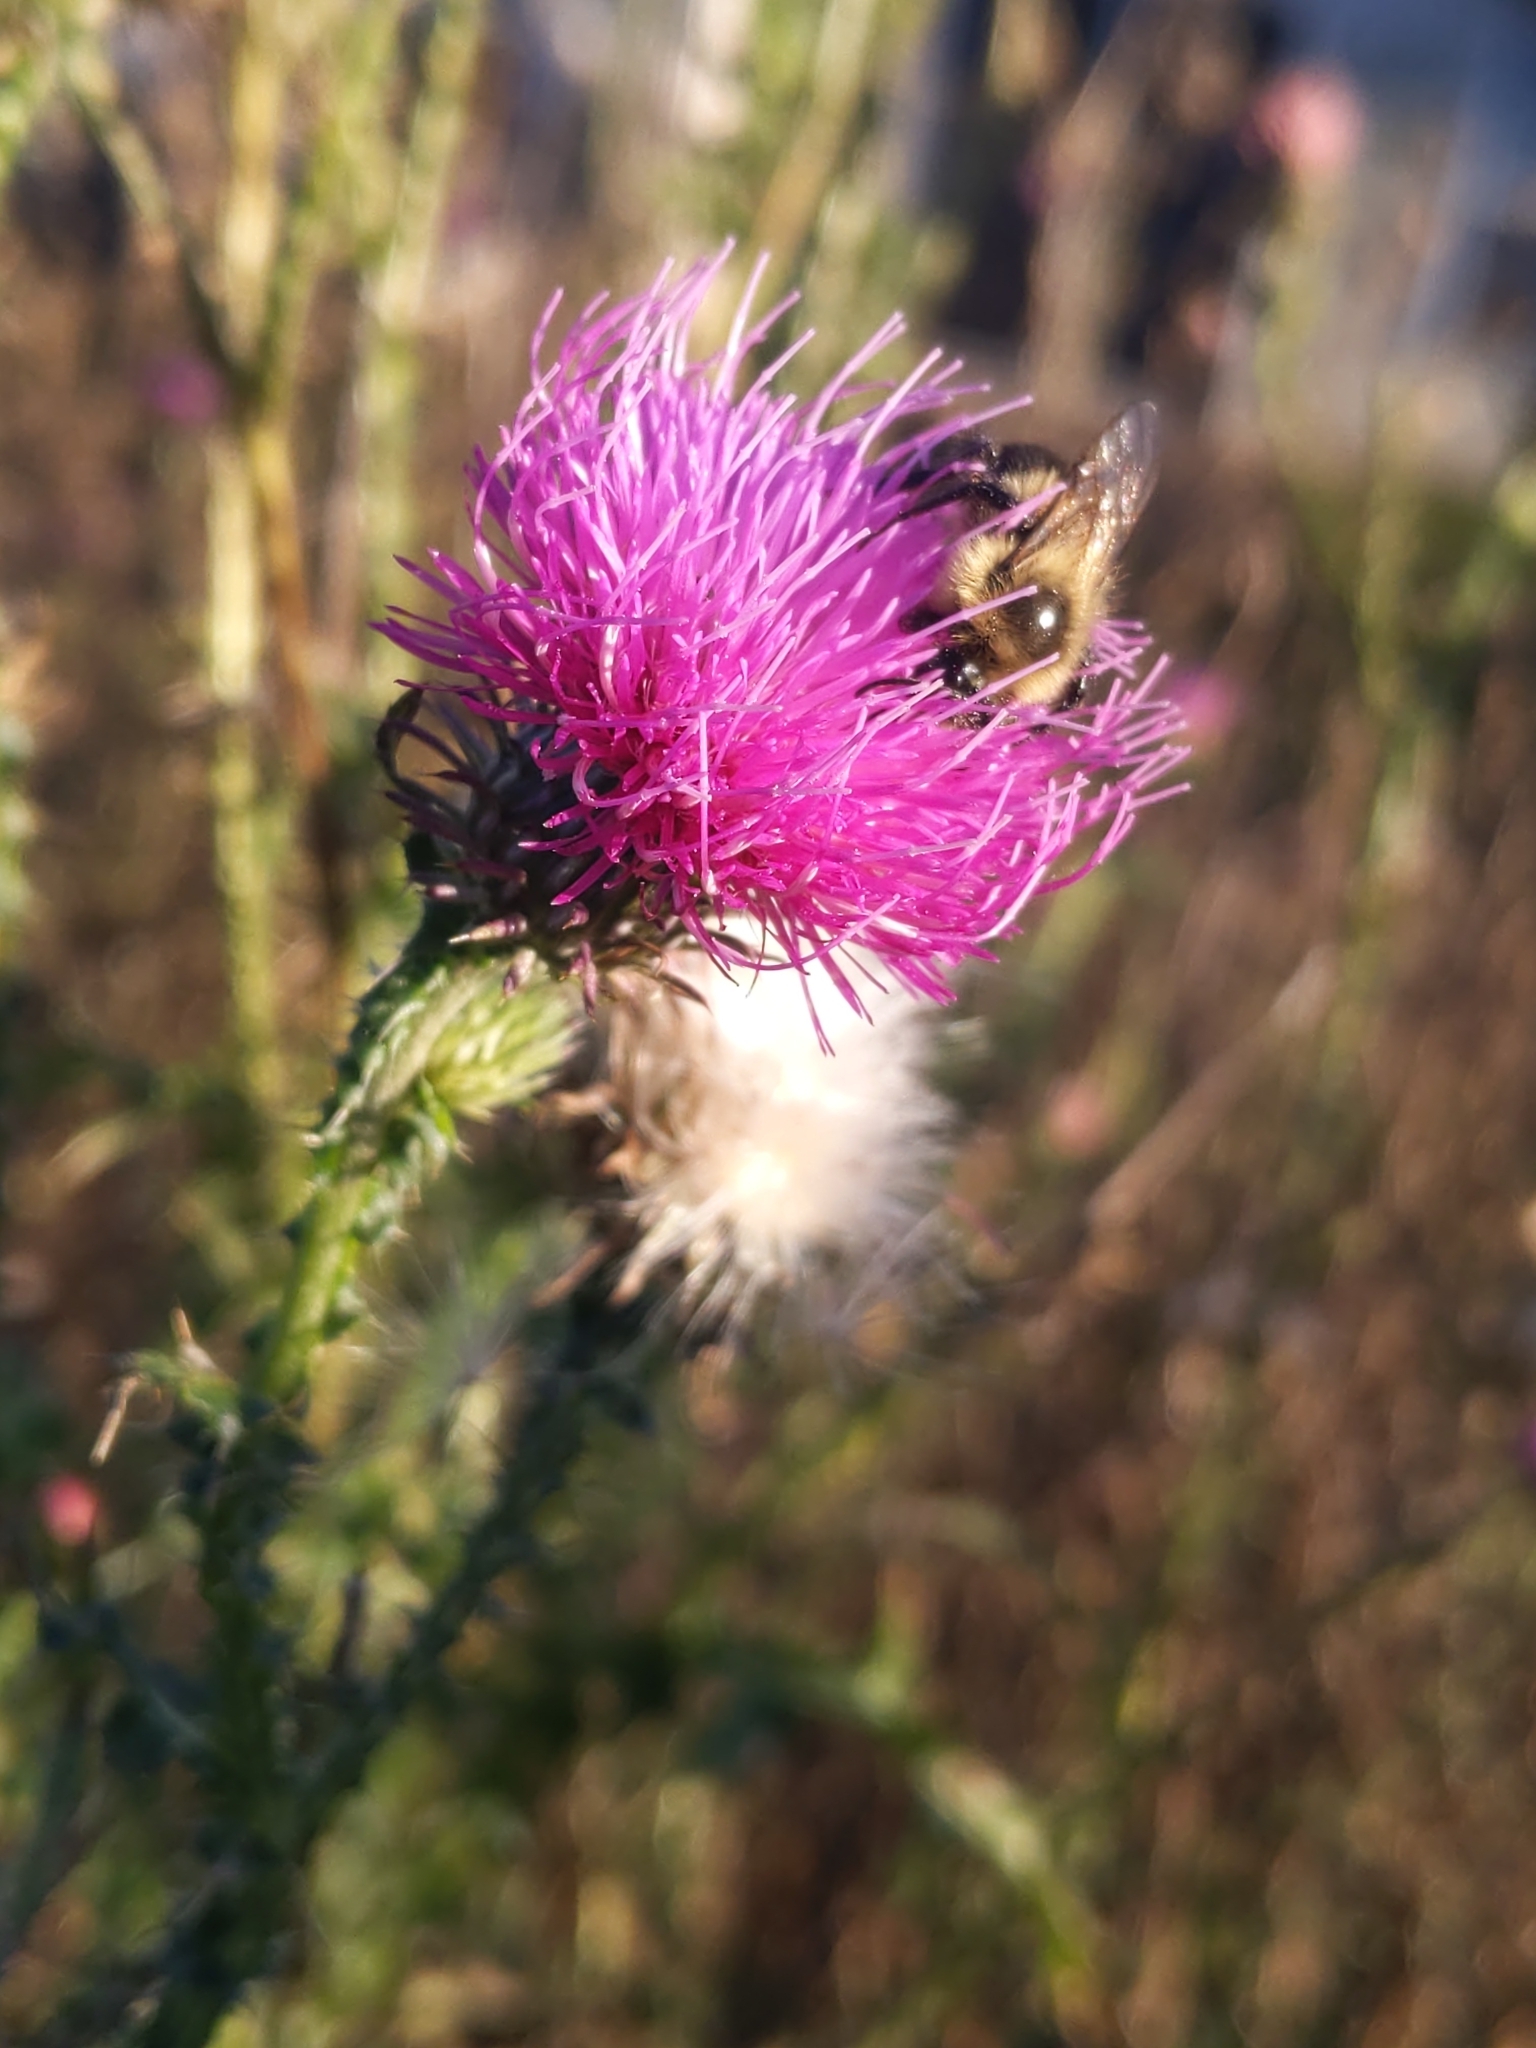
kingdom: Animalia
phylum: Arthropoda
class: Insecta
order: Hymenoptera
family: Apidae
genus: Bombus
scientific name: Bombus impatiens
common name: Common eastern bumble bee
